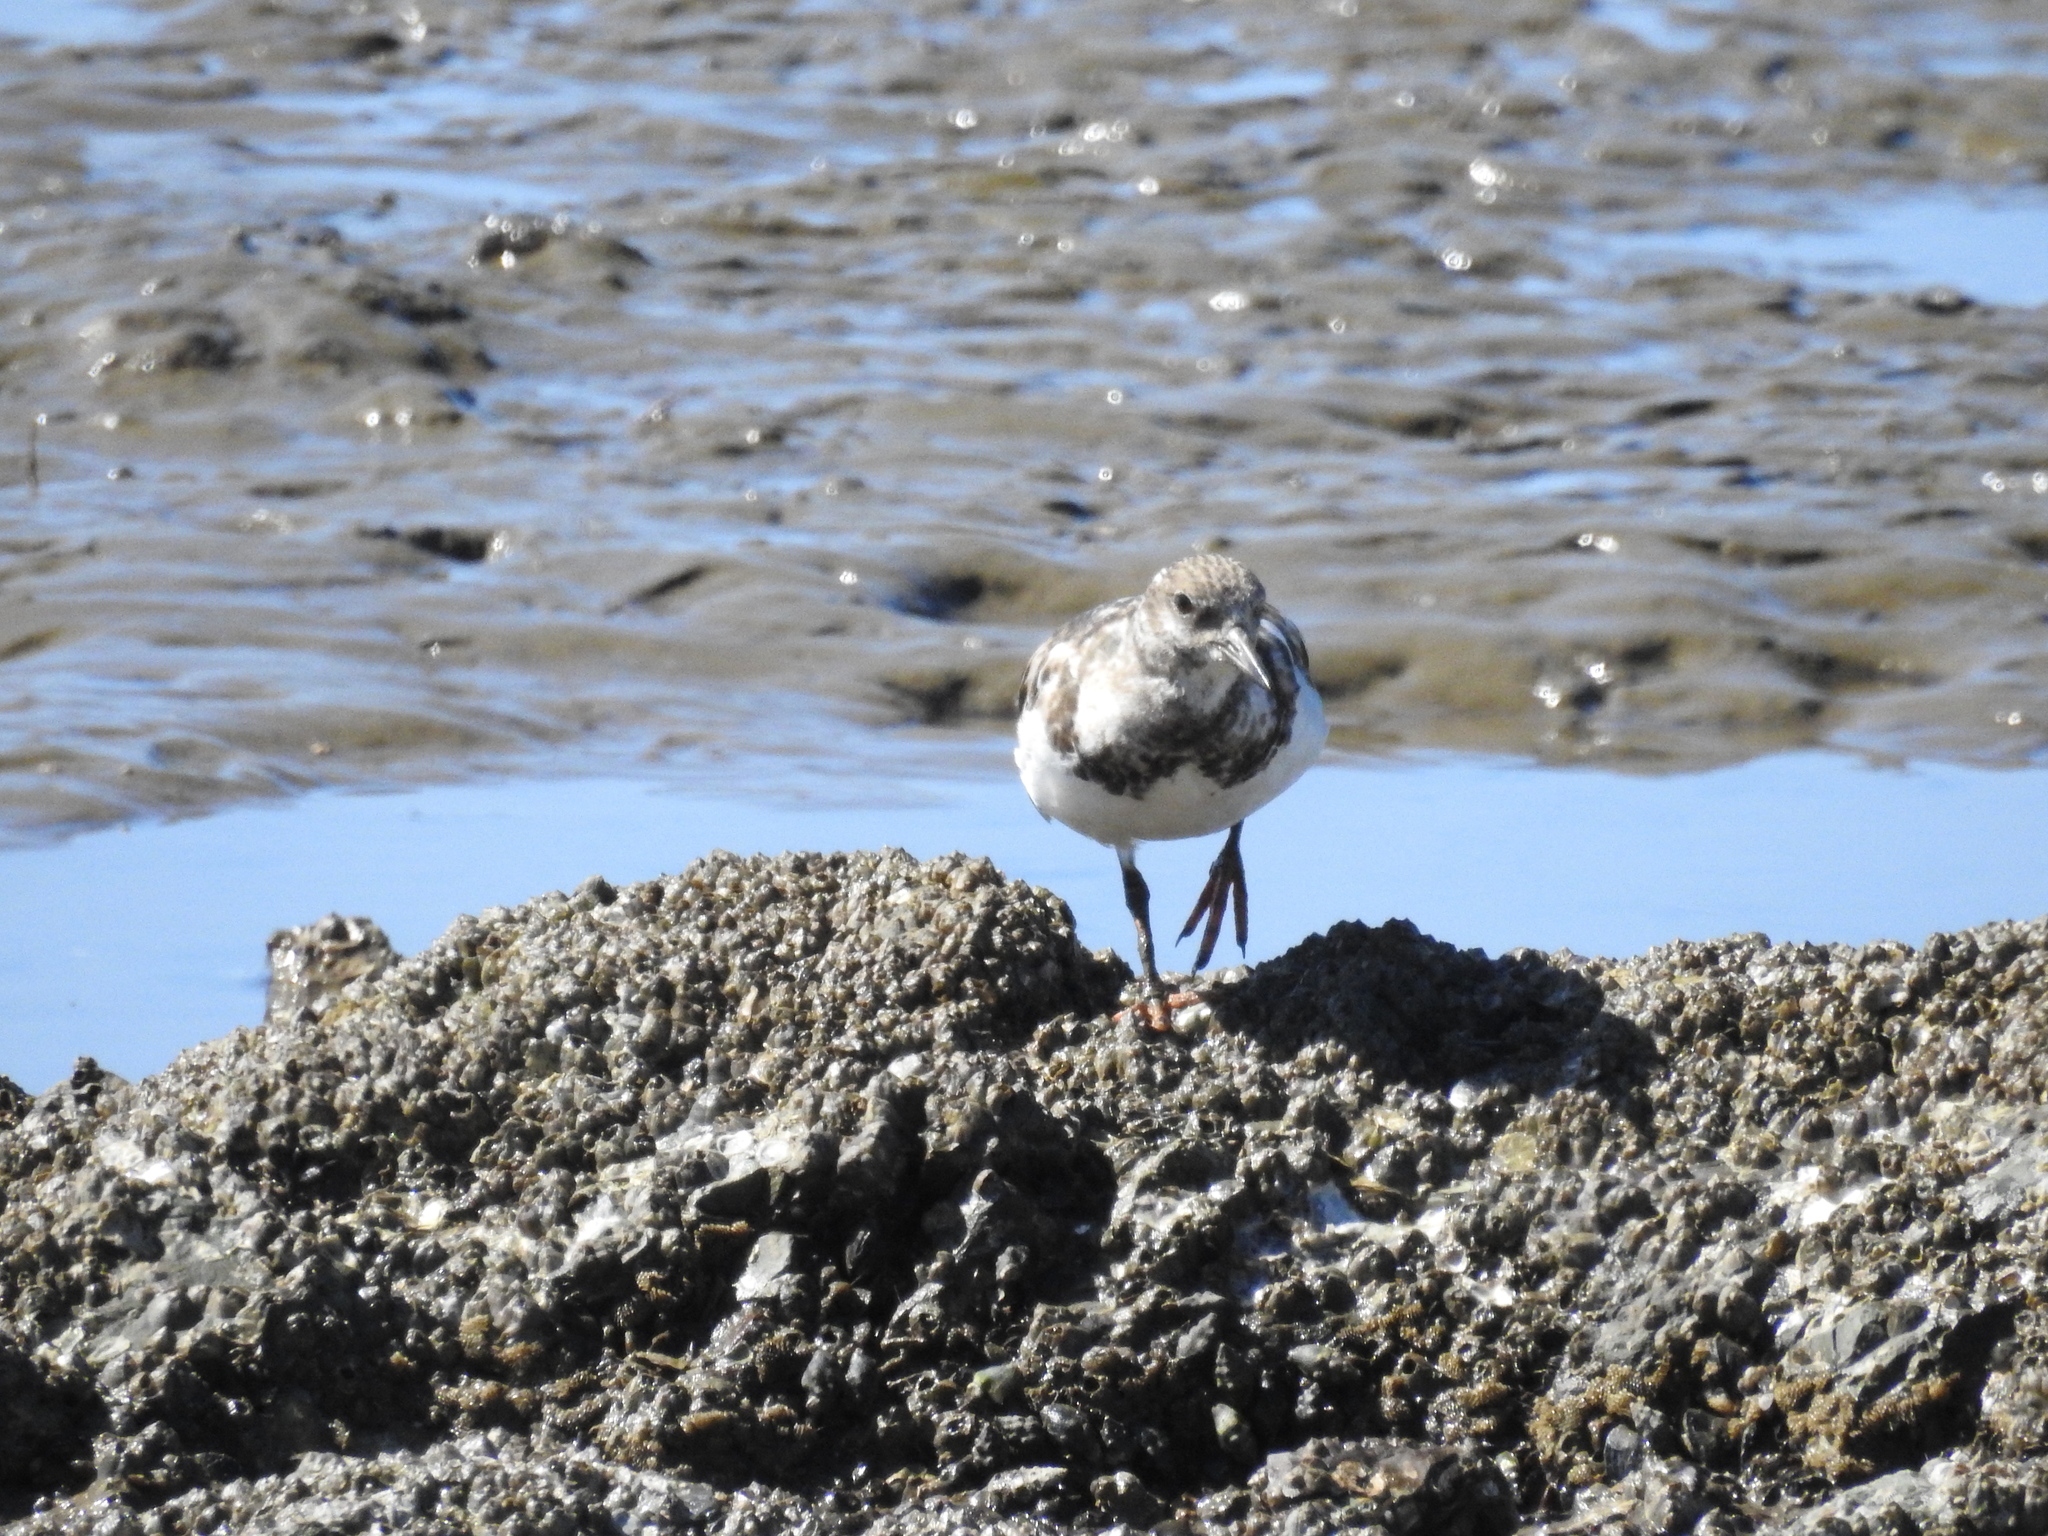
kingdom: Animalia
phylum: Chordata
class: Aves
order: Charadriiformes
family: Scolopacidae
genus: Arenaria
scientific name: Arenaria interpres
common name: Ruddy turnstone
